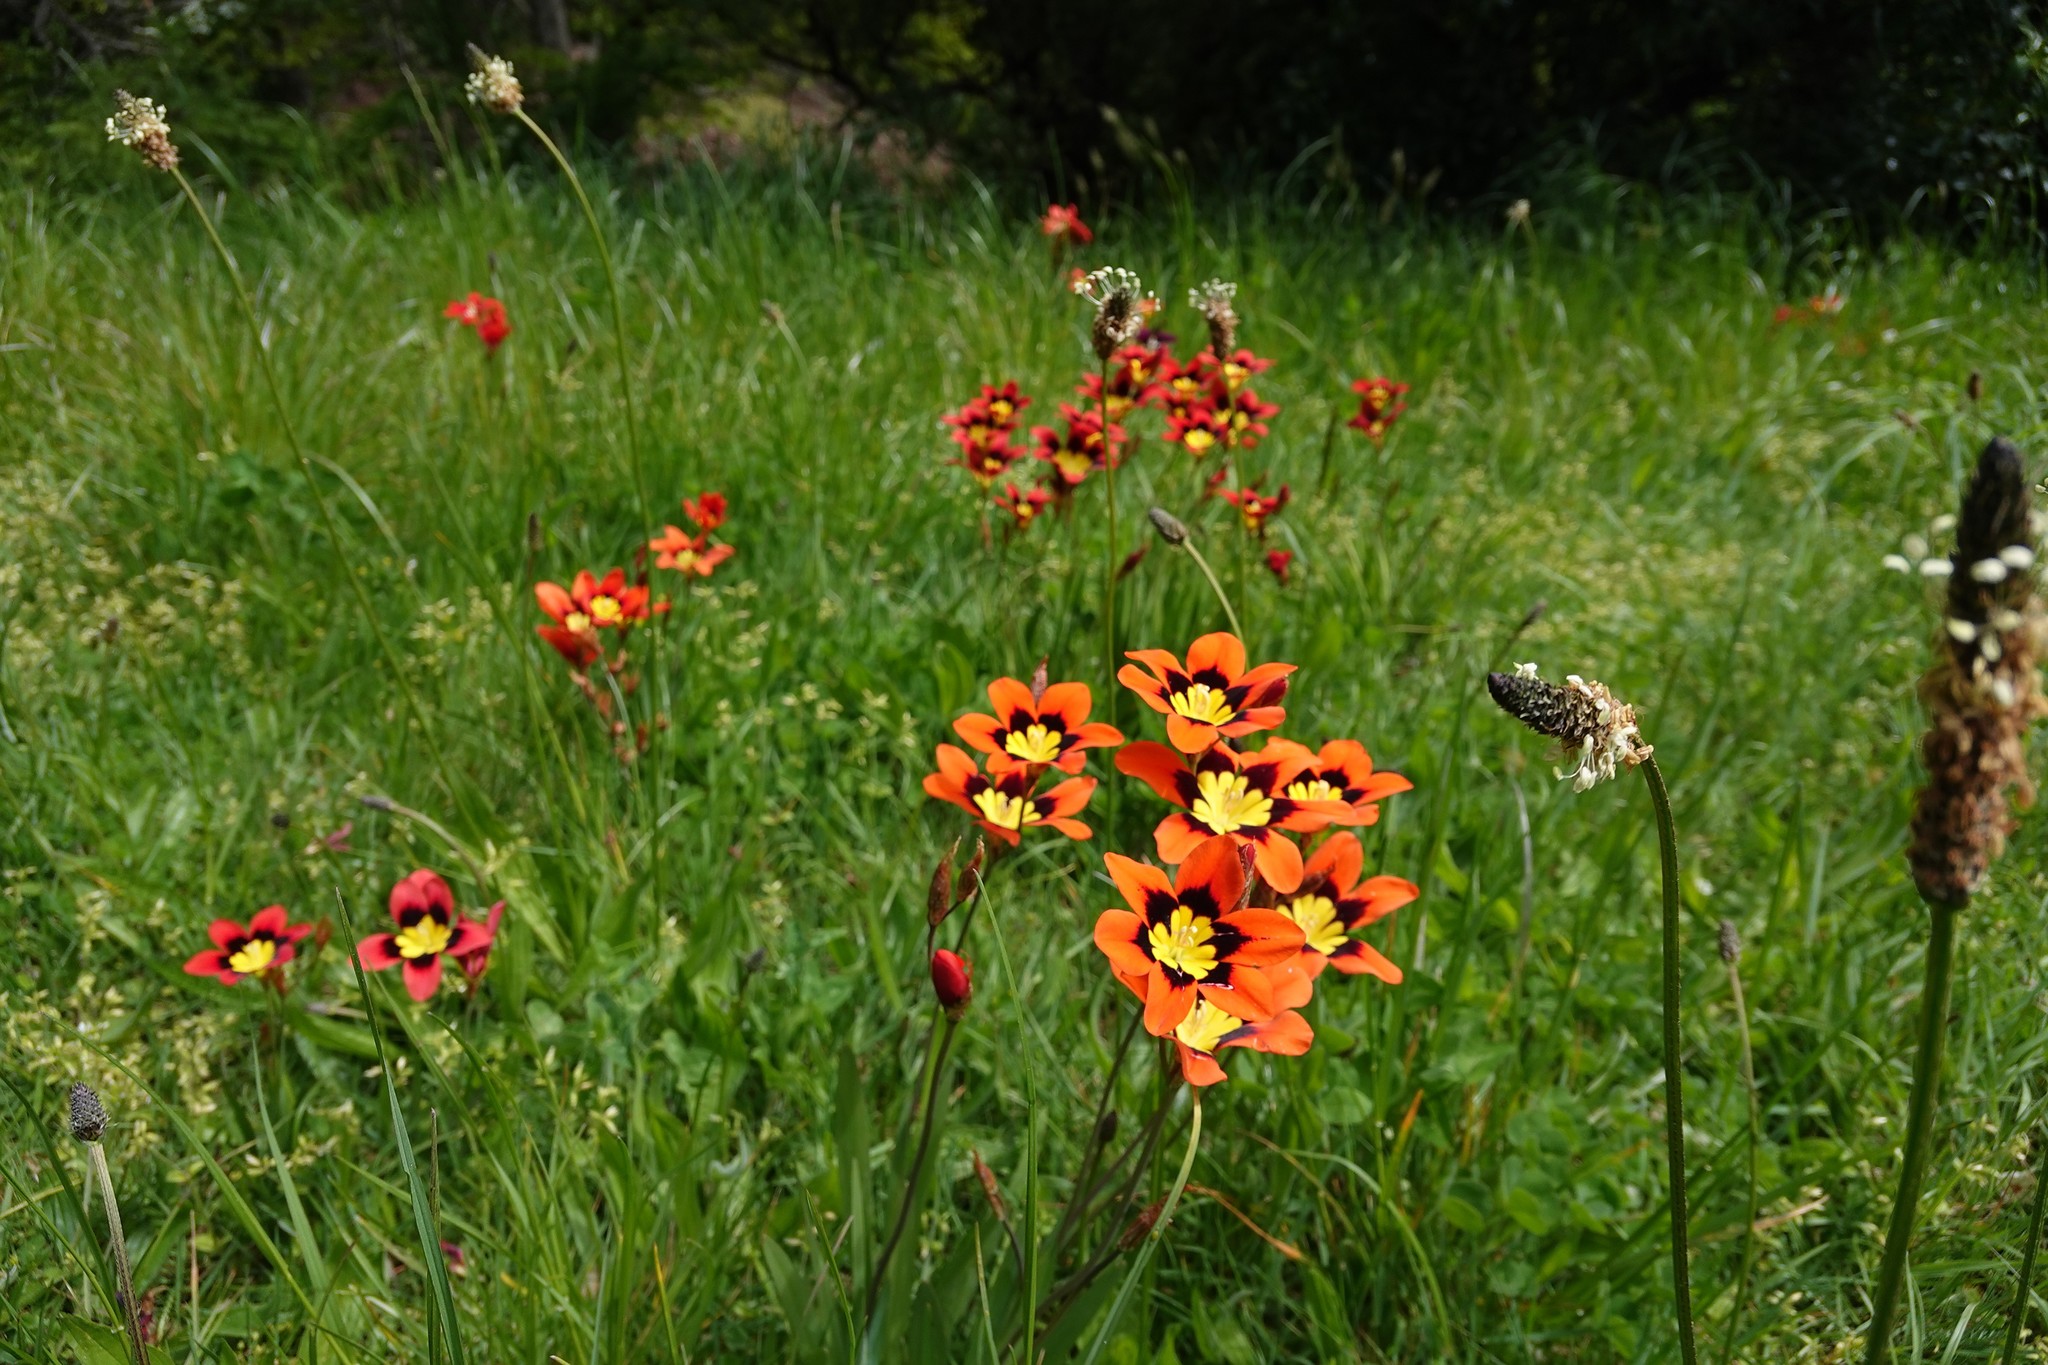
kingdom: Plantae
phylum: Tracheophyta
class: Liliopsida
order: Asparagales
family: Iridaceae
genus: Sparaxis
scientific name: Sparaxis tricolor
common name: Wandflower
